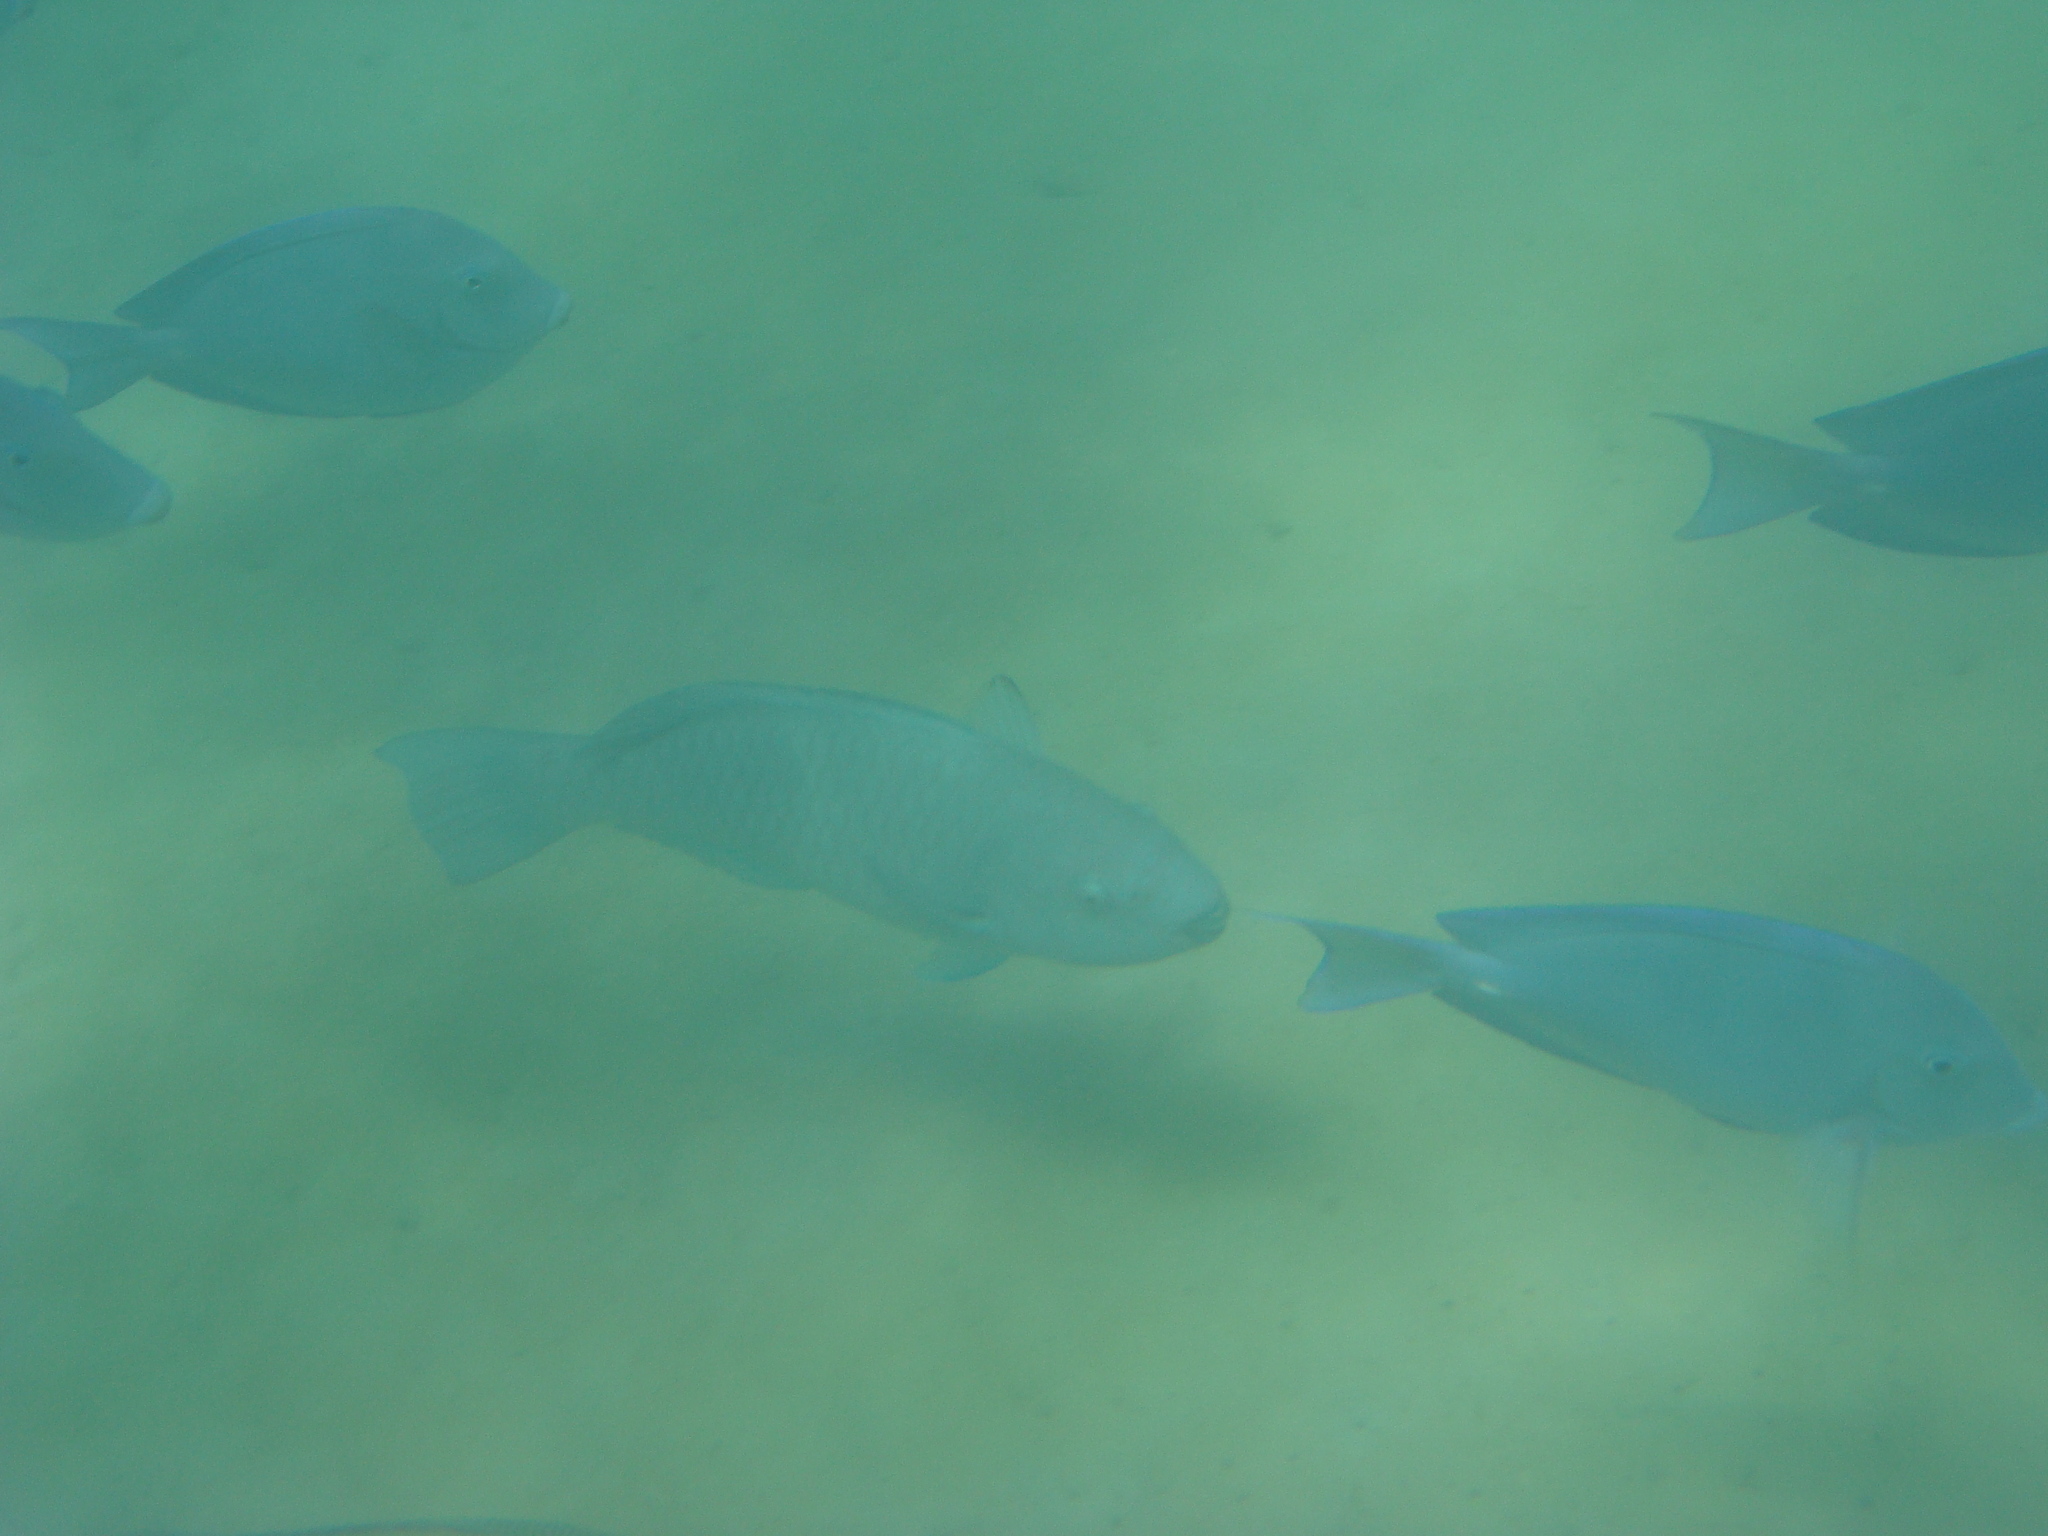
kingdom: Animalia
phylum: Chordata
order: Perciformes
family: Scaridae
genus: Scarus
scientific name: Scarus trispinosus
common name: Greenback parrotfish
